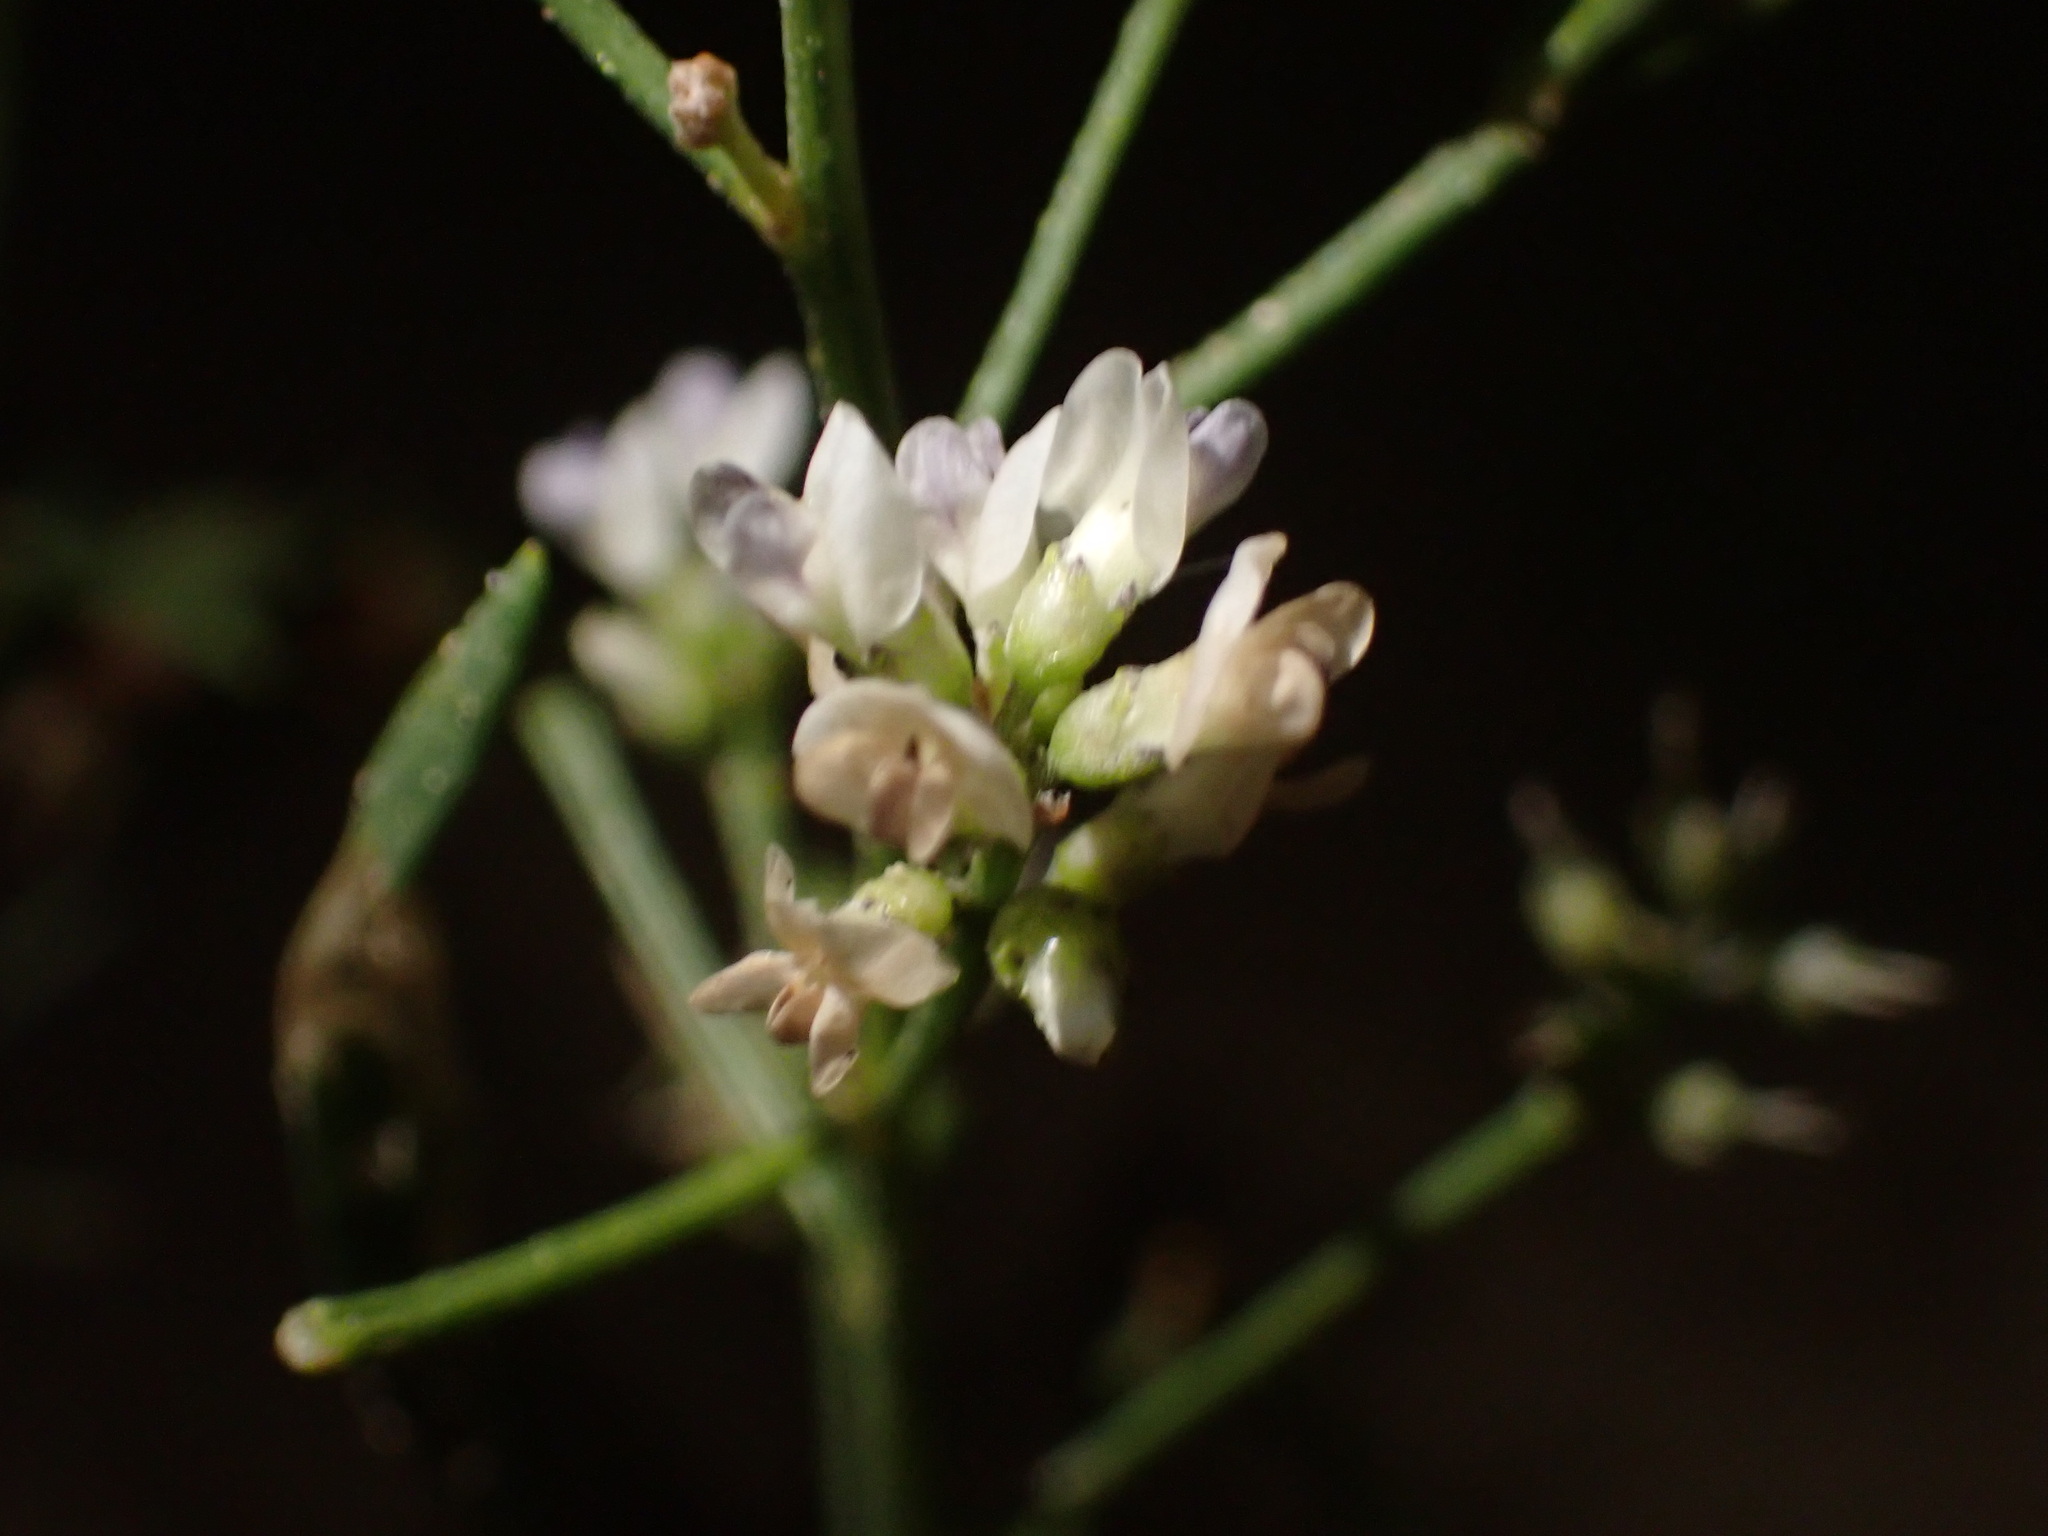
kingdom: Plantae
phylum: Tracheophyta
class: Magnoliopsida
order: Fabales
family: Fabaceae
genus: Ladeania
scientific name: Ladeania lanceolata
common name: Dune scurf-pea
